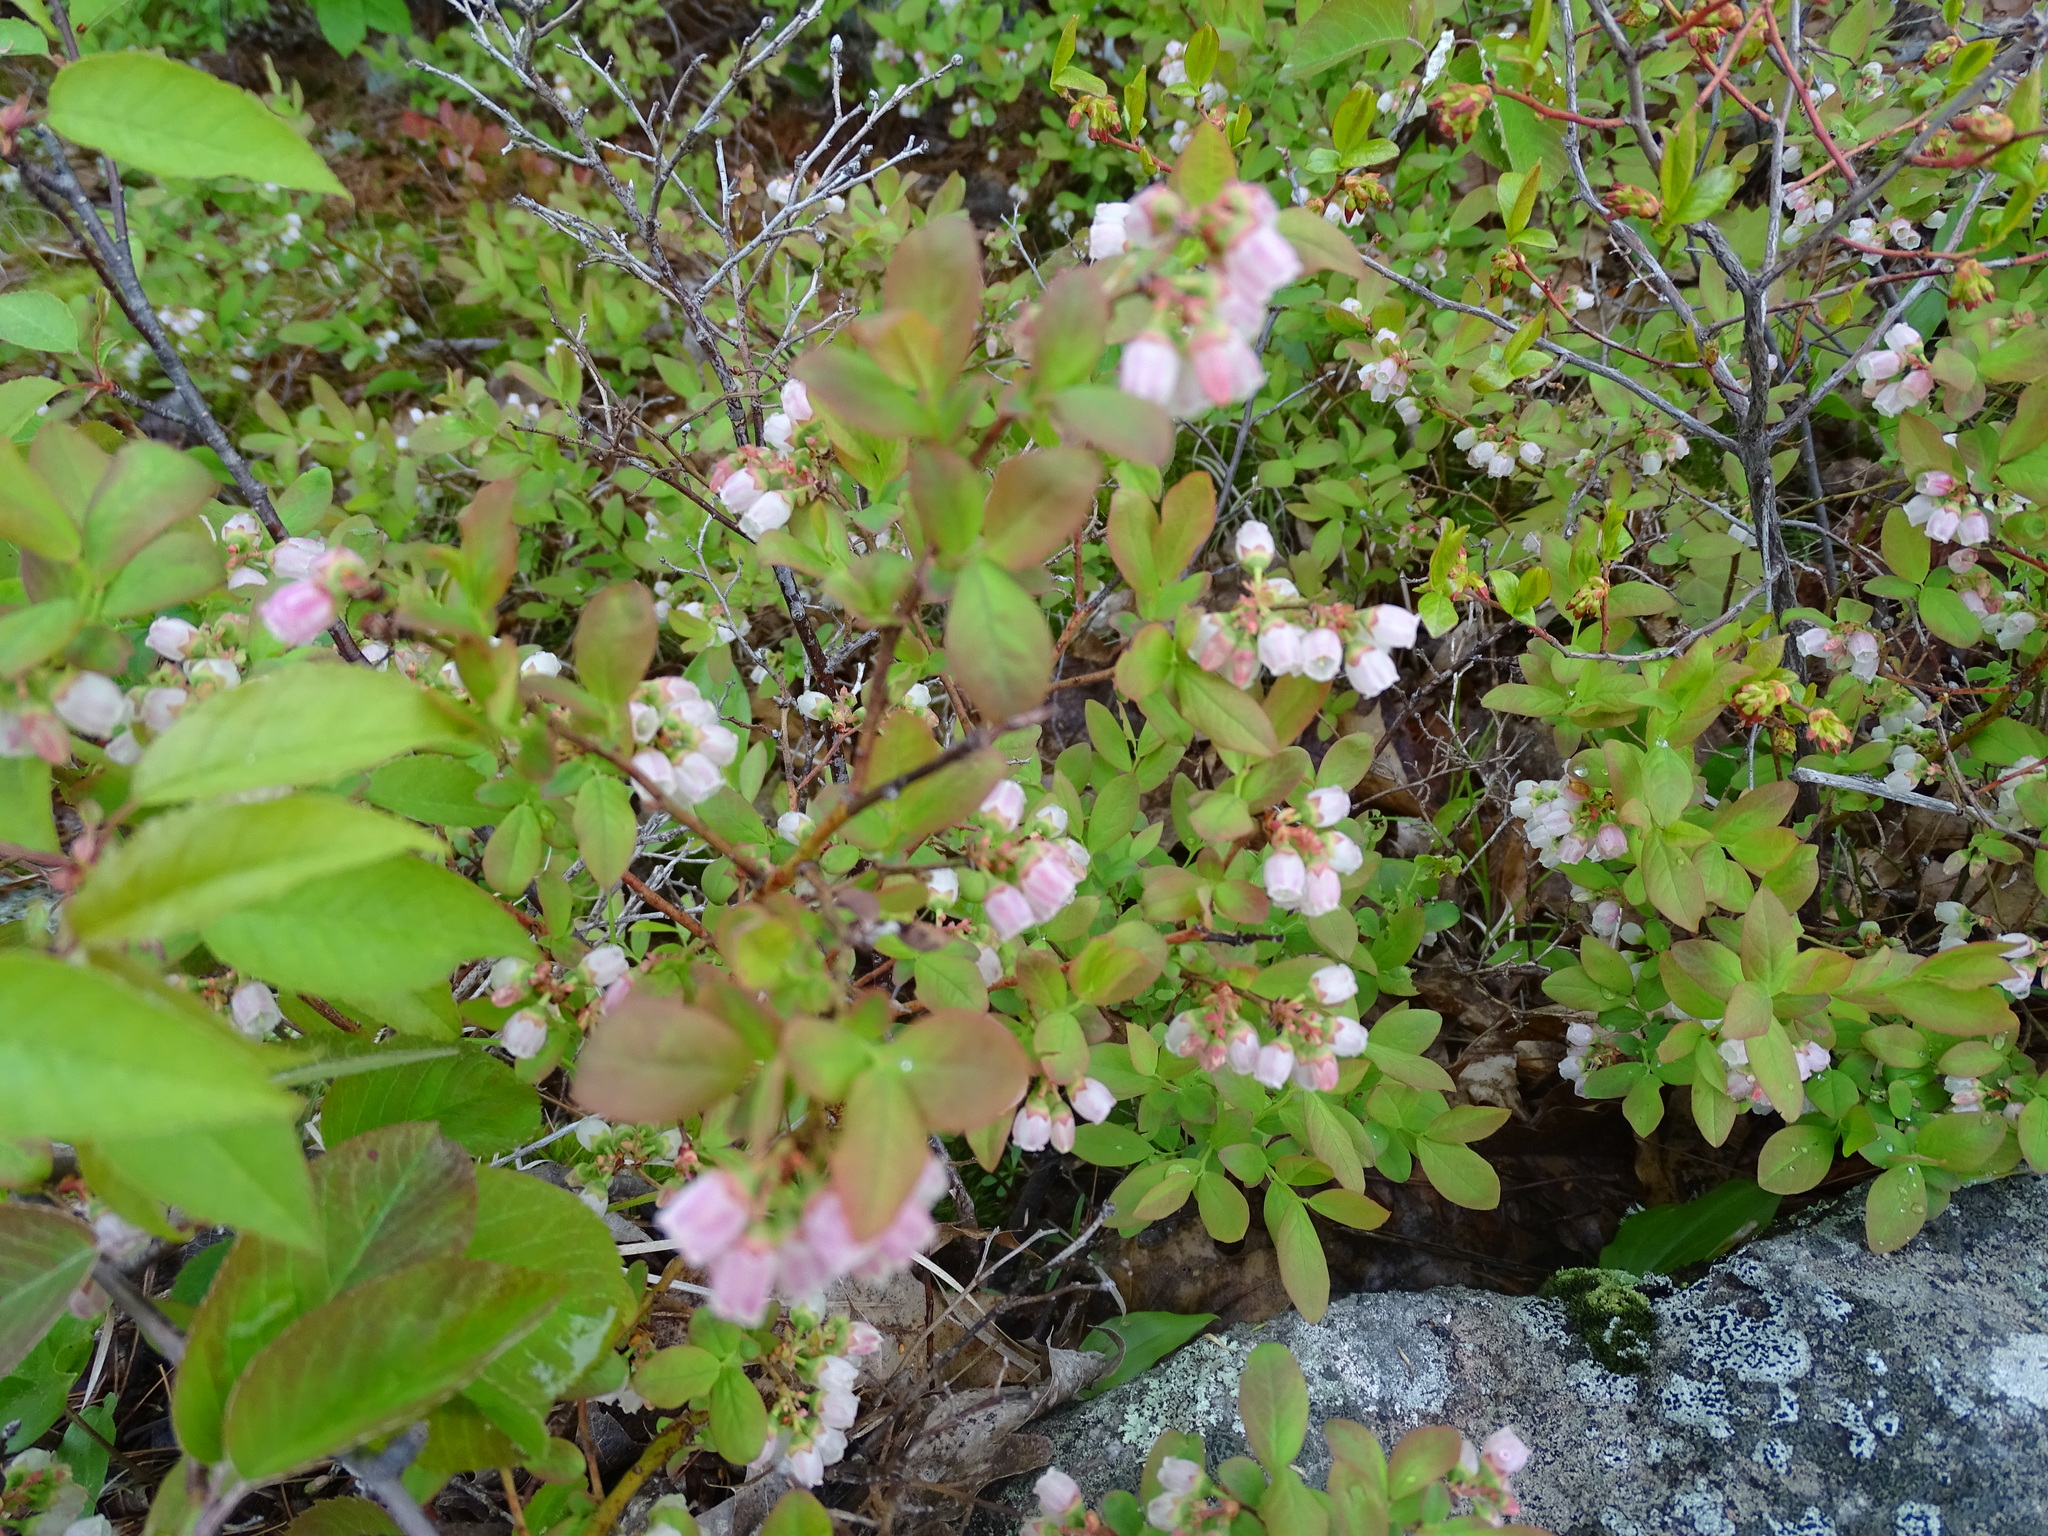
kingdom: Plantae
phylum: Tracheophyta
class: Magnoliopsida
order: Ericales
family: Ericaceae
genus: Vaccinium
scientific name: Vaccinium angustifolium
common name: Early lowbush blueberry
